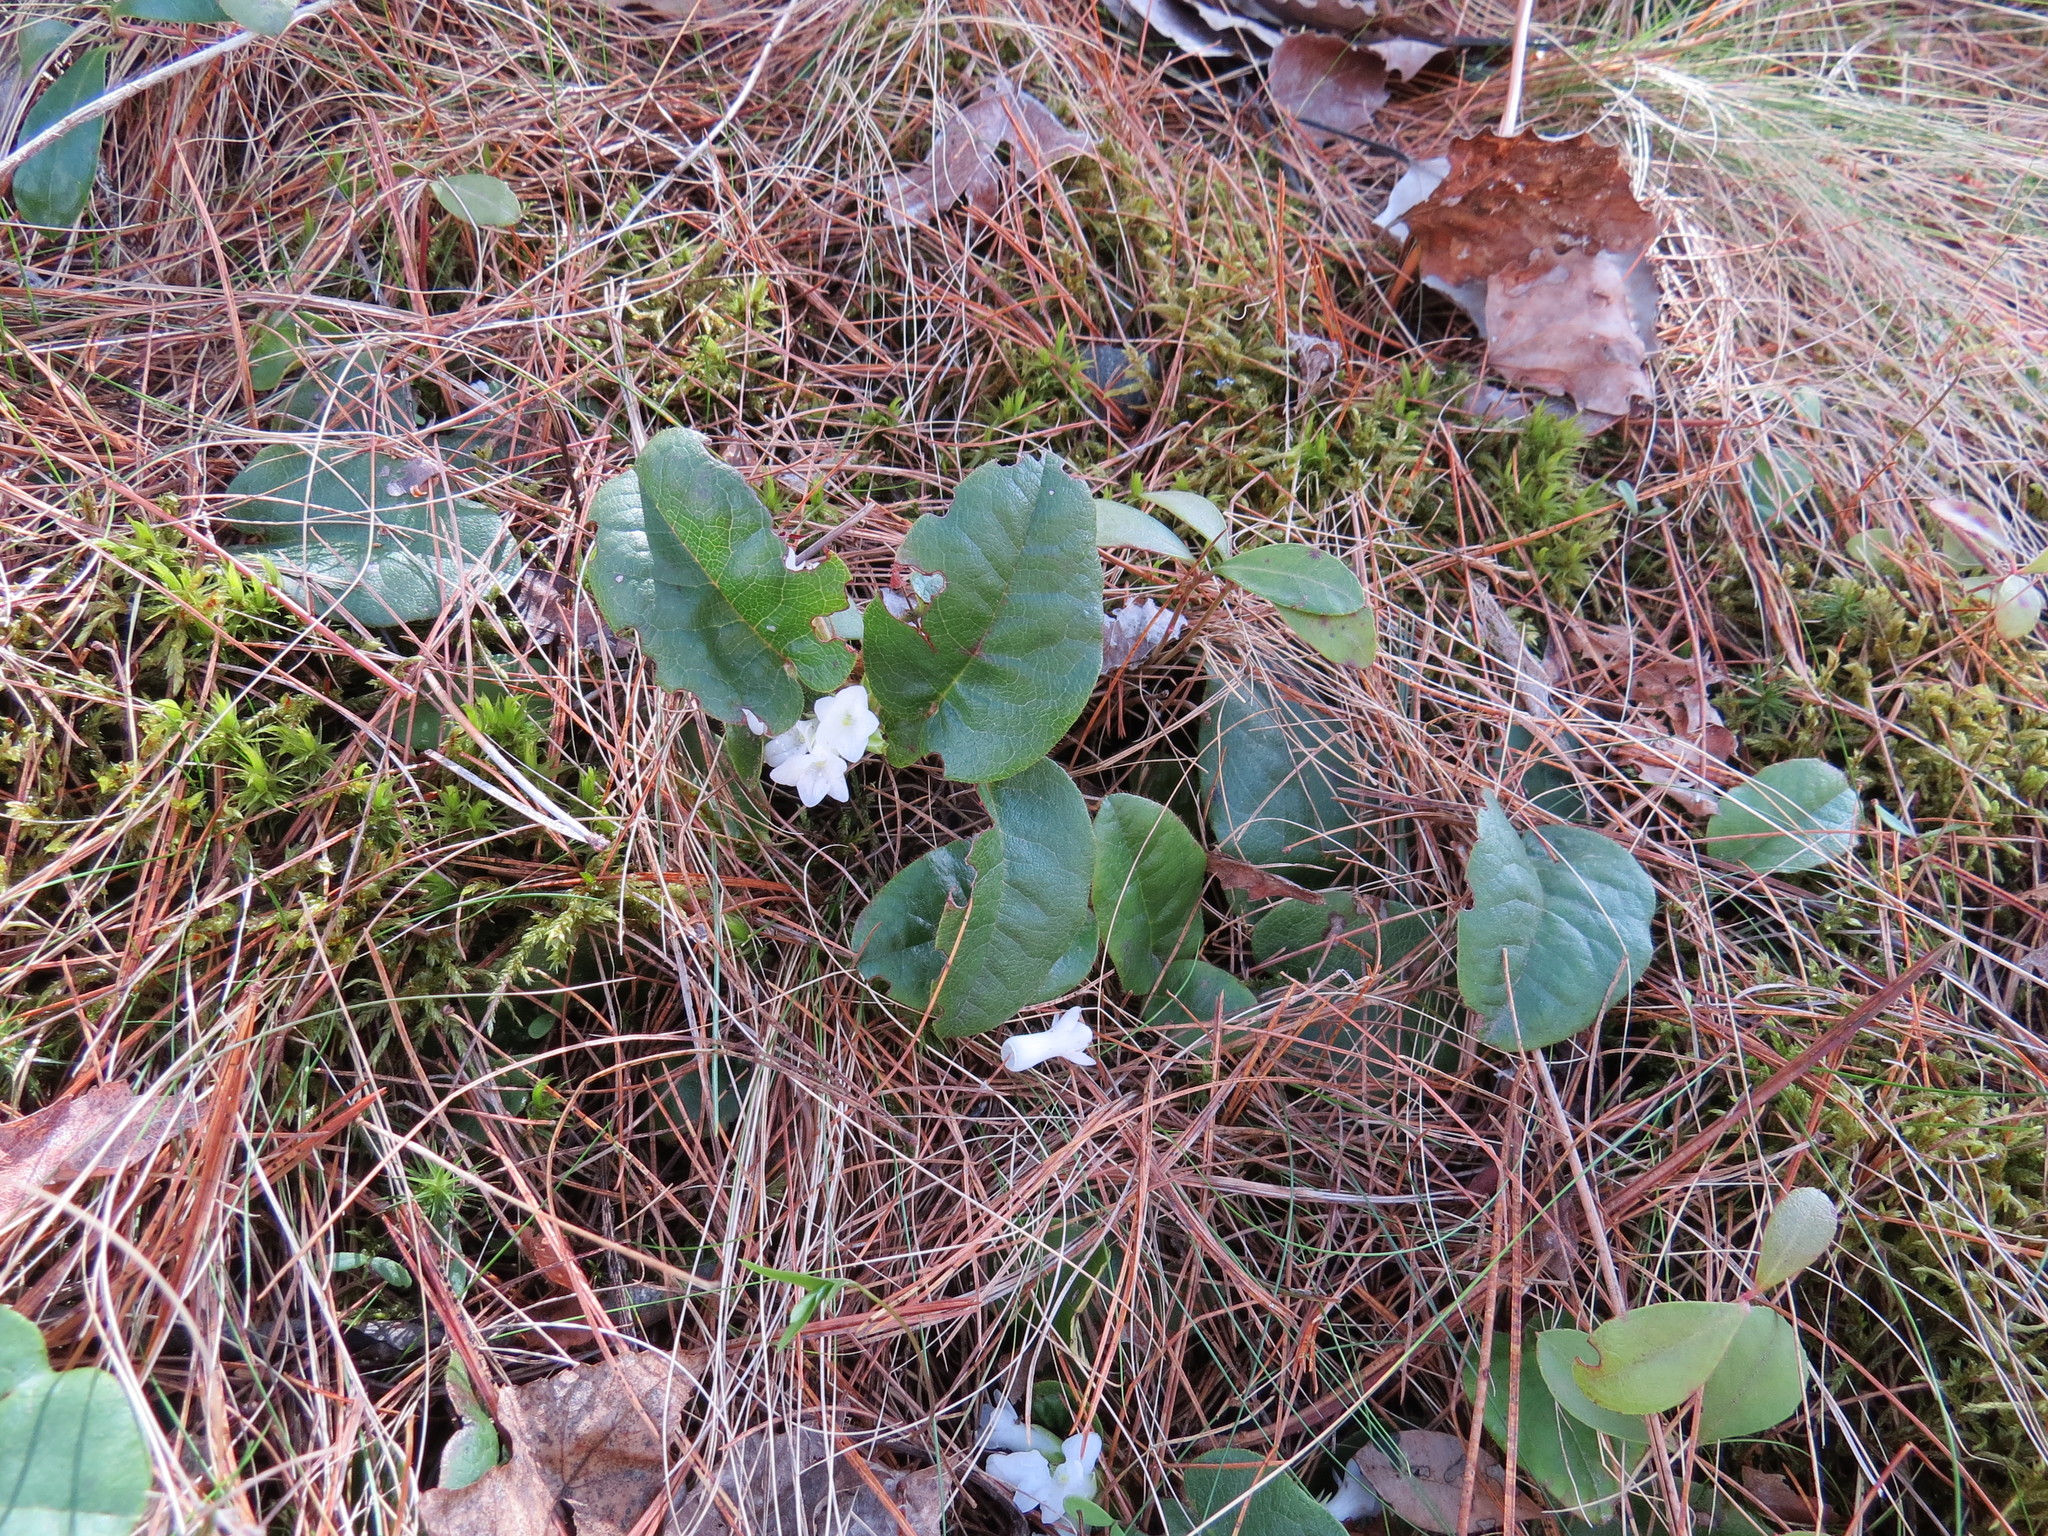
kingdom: Plantae
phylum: Tracheophyta
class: Magnoliopsida
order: Ericales
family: Ericaceae
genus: Epigaea
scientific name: Epigaea repens
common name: Gravelroot
